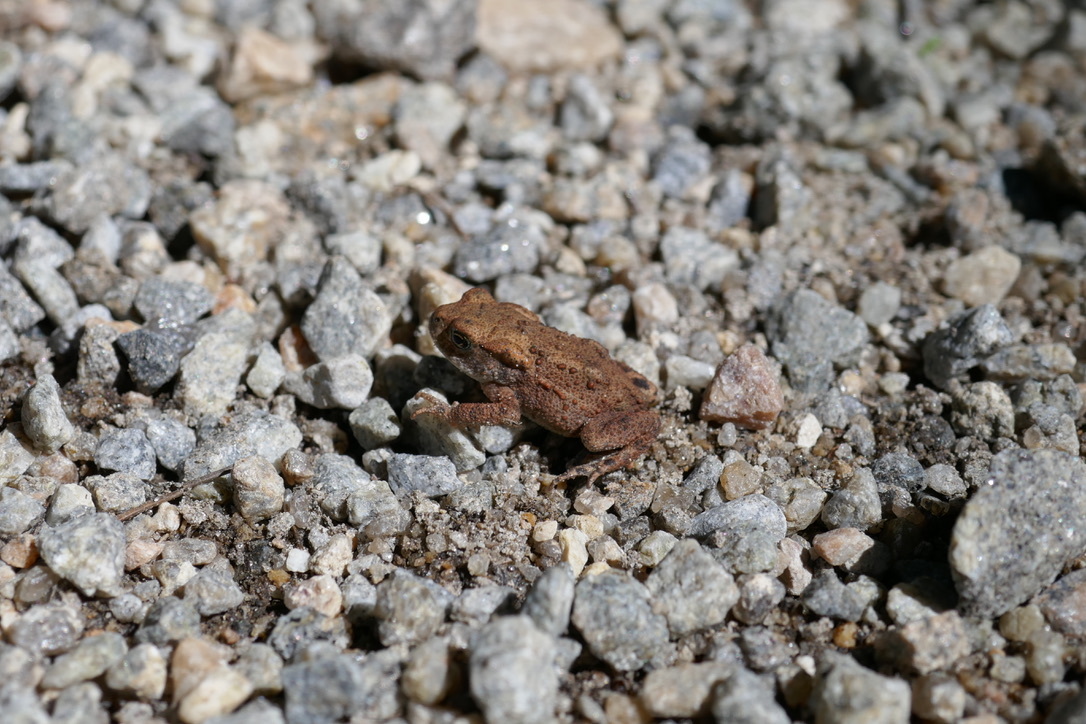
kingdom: Animalia
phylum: Chordata
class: Amphibia
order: Anura
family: Bufonidae
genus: Bufo
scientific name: Bufo bufo
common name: Common toad
